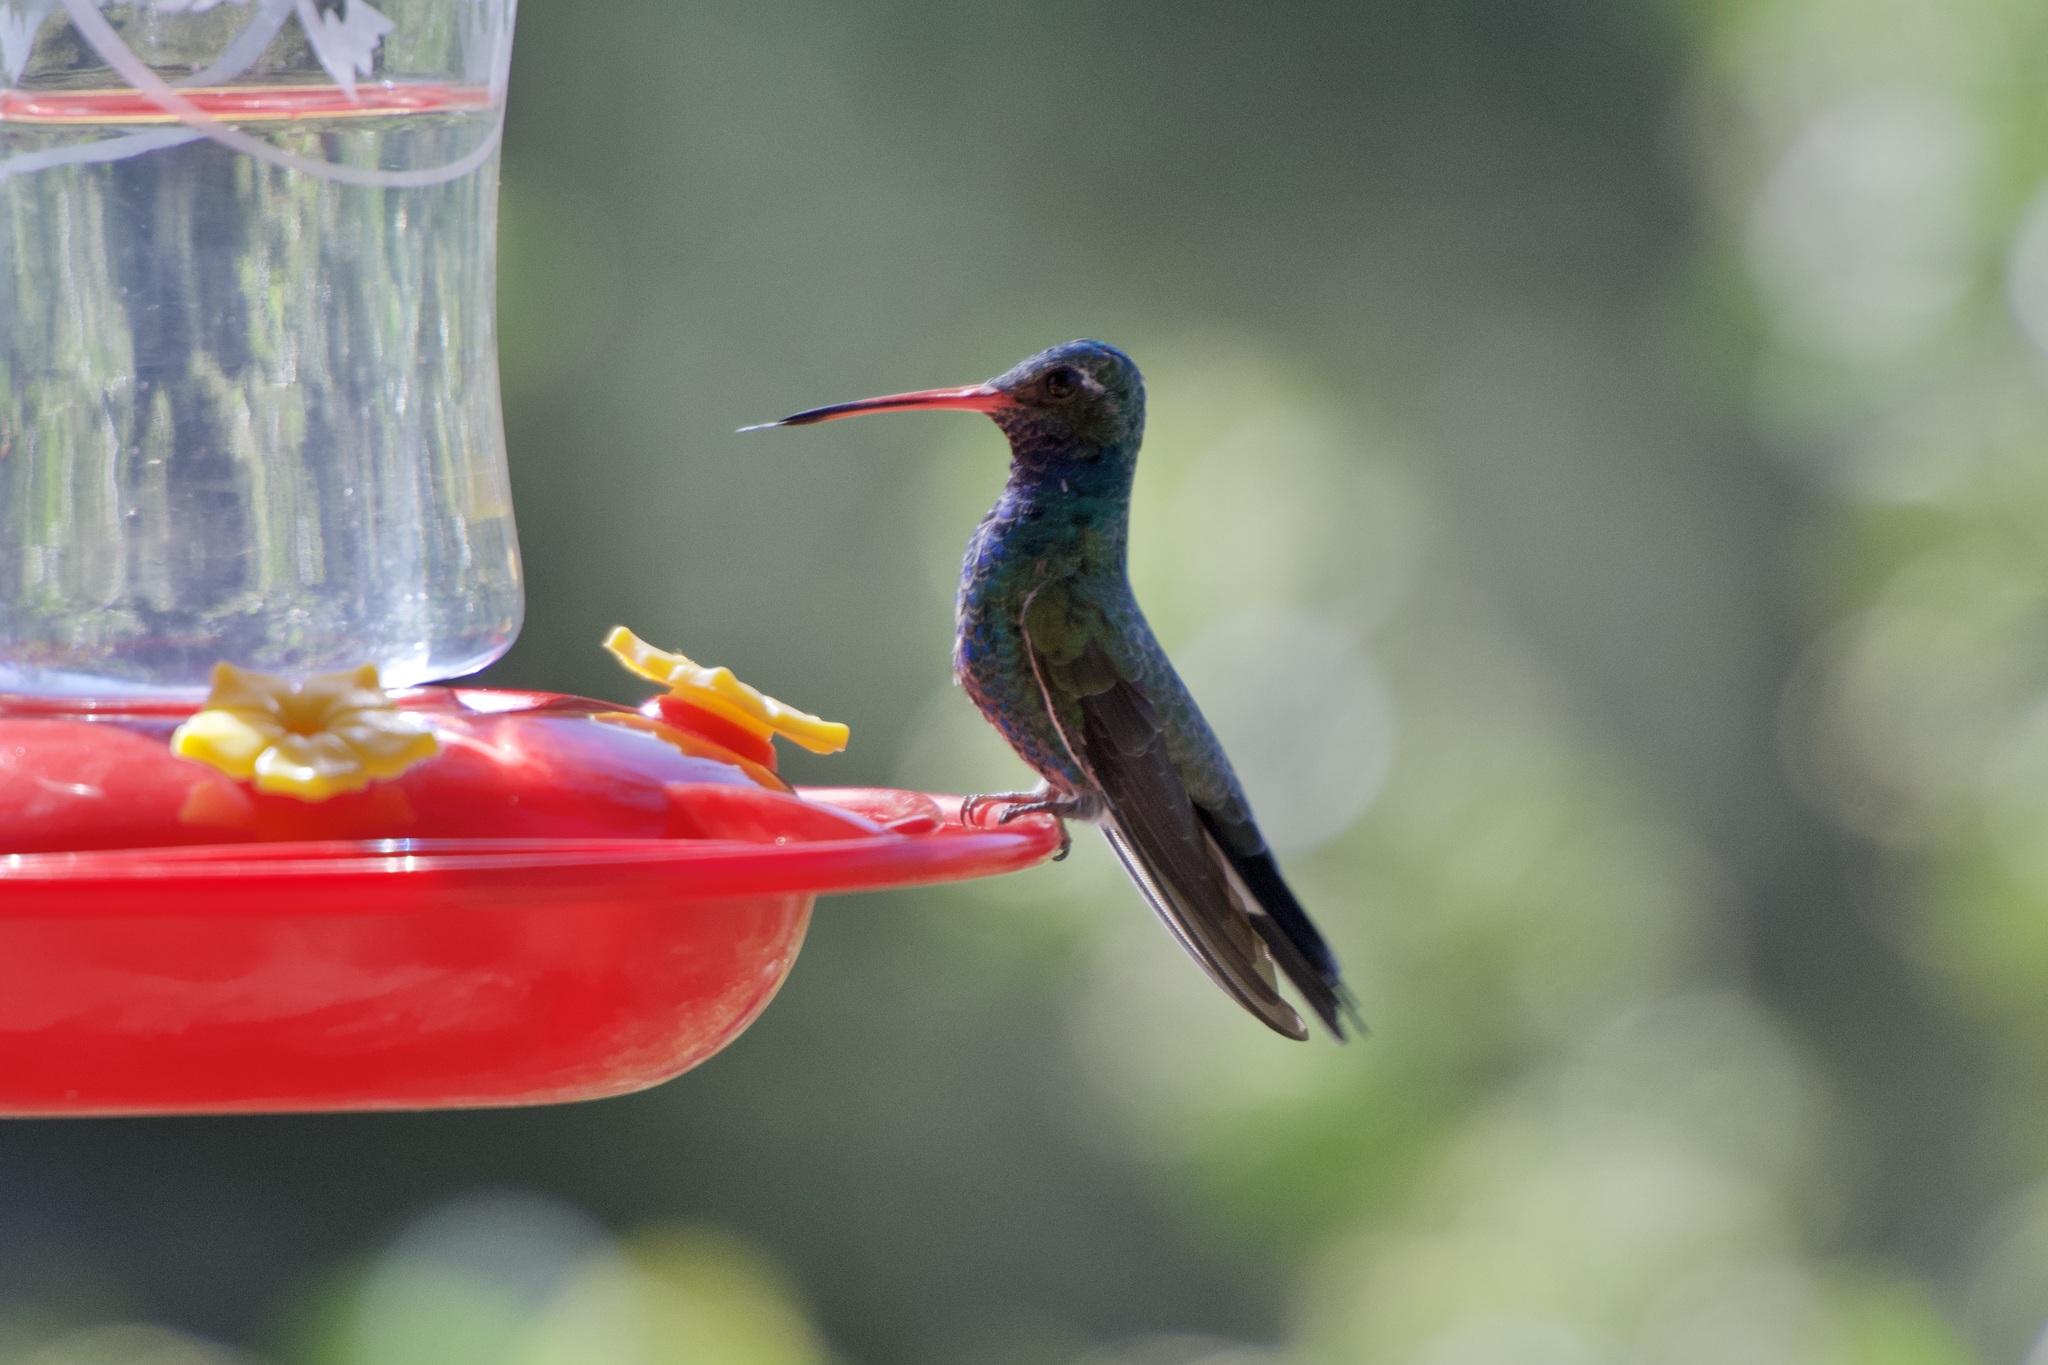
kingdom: Animalia
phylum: Chordata
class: Aves
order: Apodiformes
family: Trochilidae
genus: Cynanthus
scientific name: Cynanthus latirostris
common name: Broad-billed hummingbird
